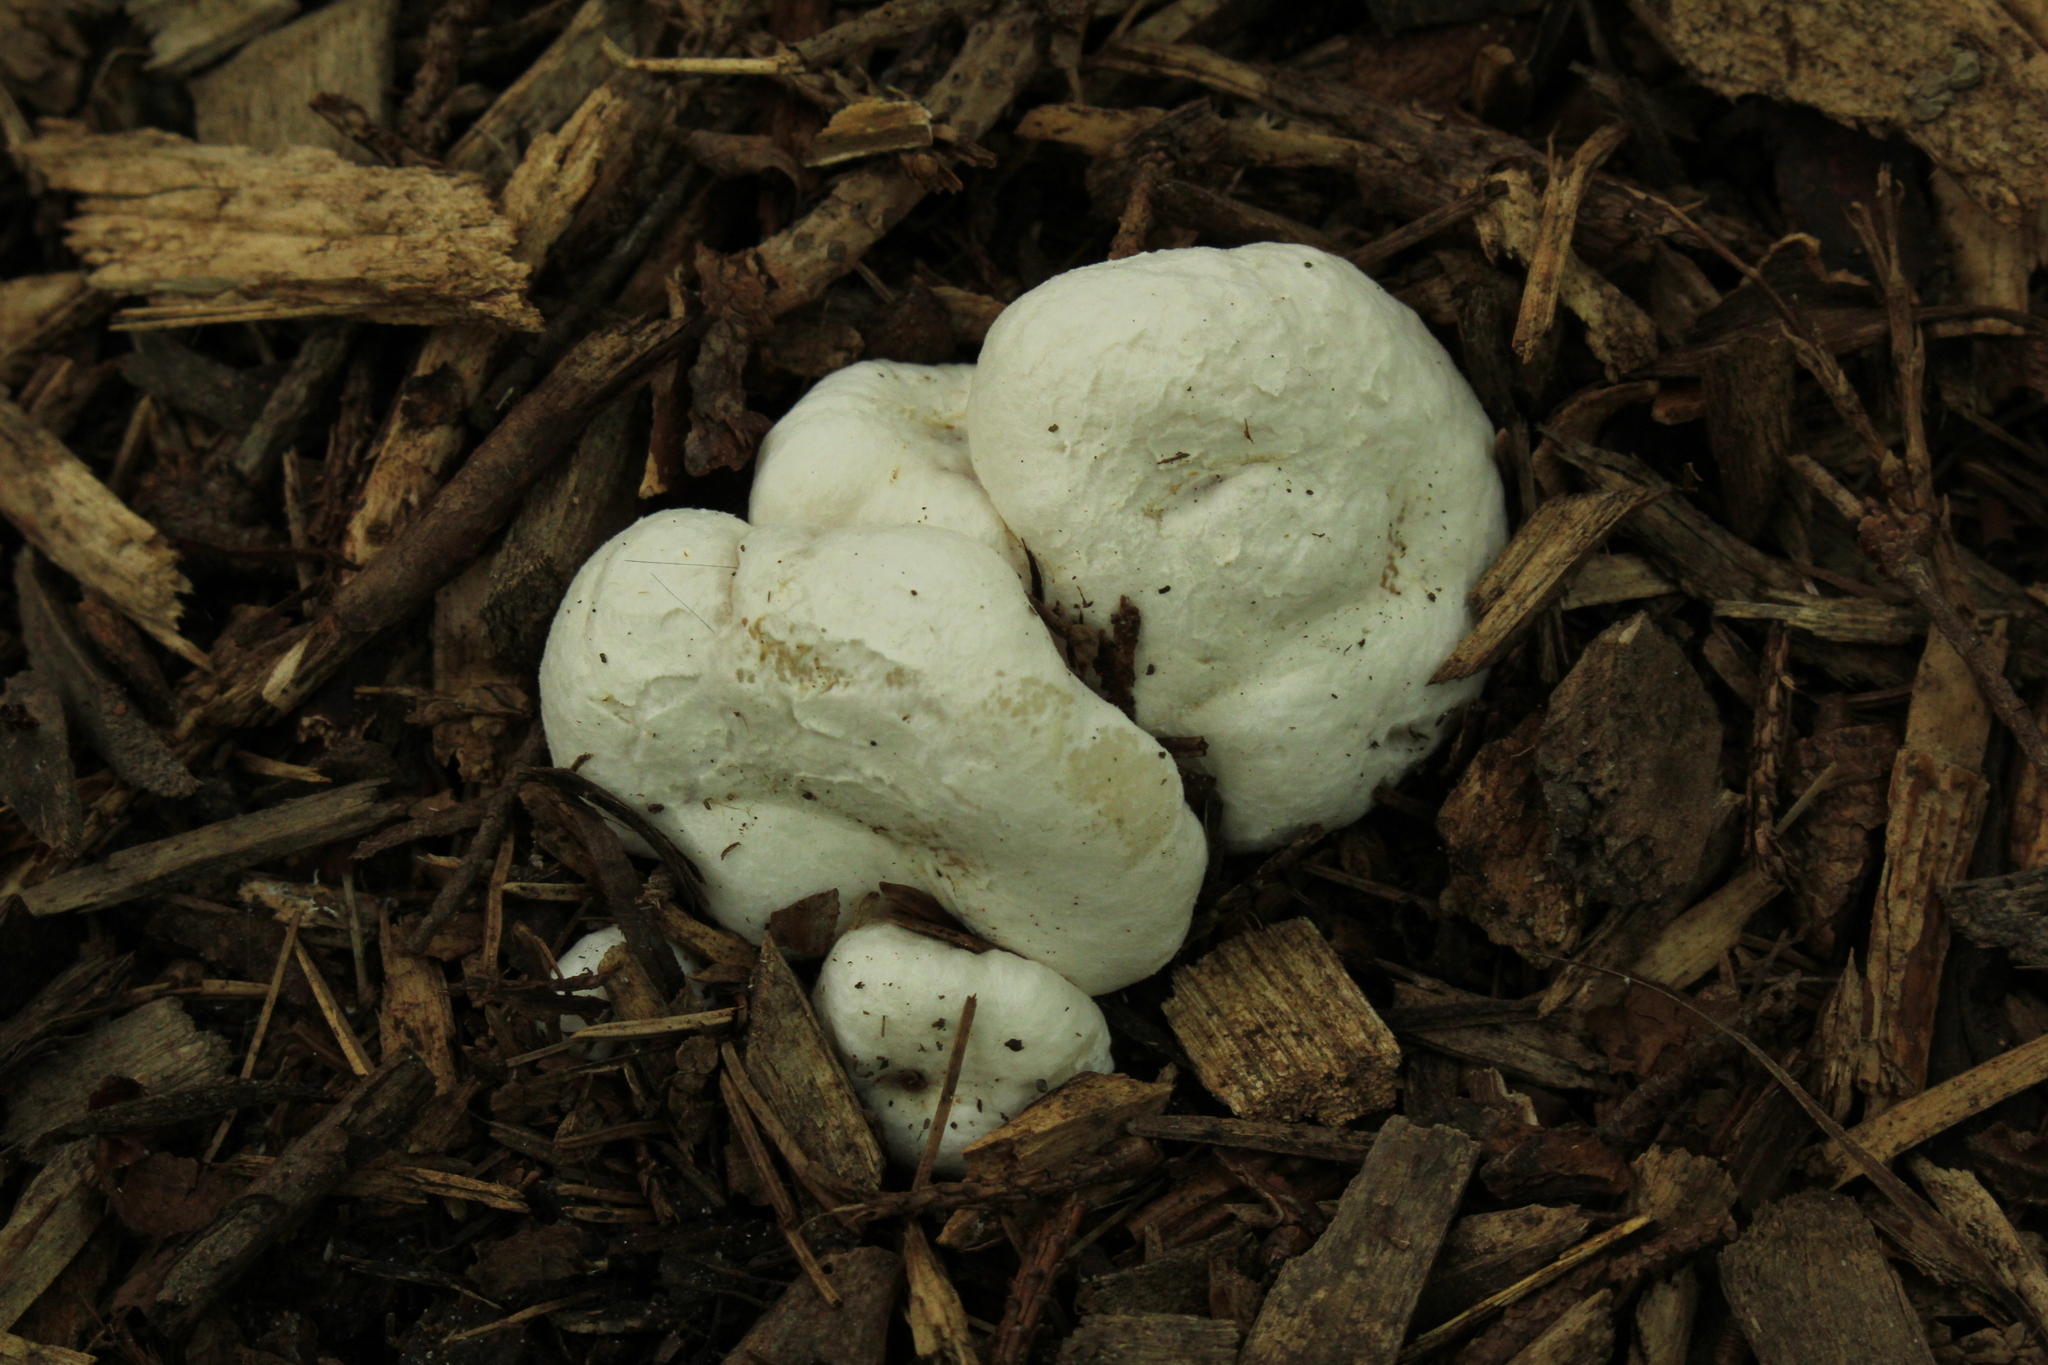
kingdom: Fungi
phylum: Basidiomycota
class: Agaricomycetes
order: Agaricales
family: Entolomataceae
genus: Entoloma
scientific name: Entoloma abortivum
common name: Aborted entoloma
